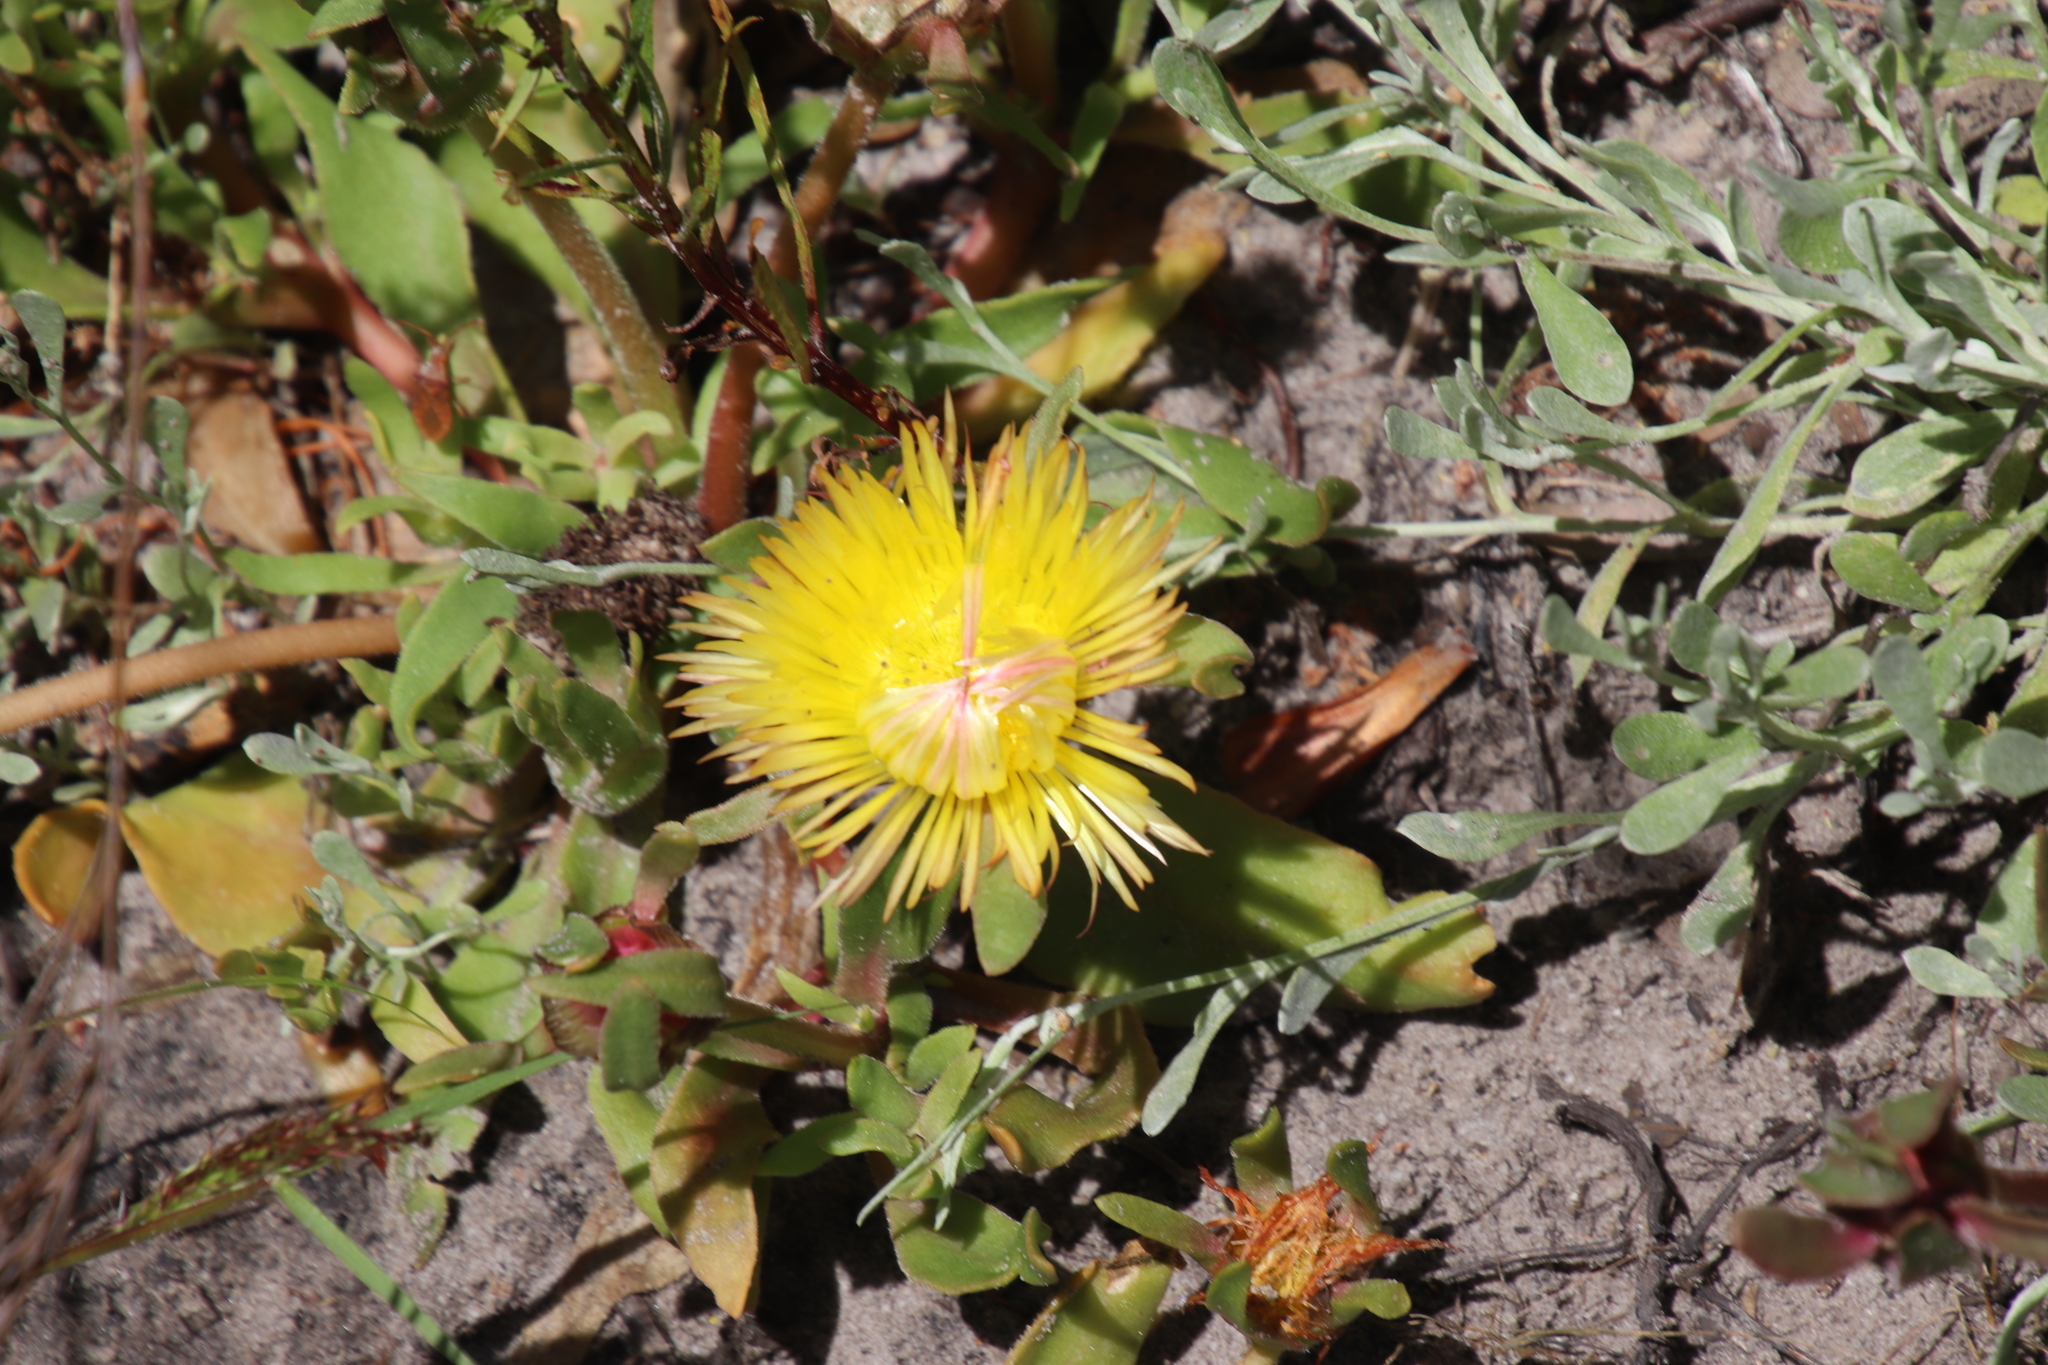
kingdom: Plantae
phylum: Tracheophyta
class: Magnoliopsida
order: Caryophyllales
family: Aizoaceae
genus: Carpanthea
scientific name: Carpanthea pomeridiana
